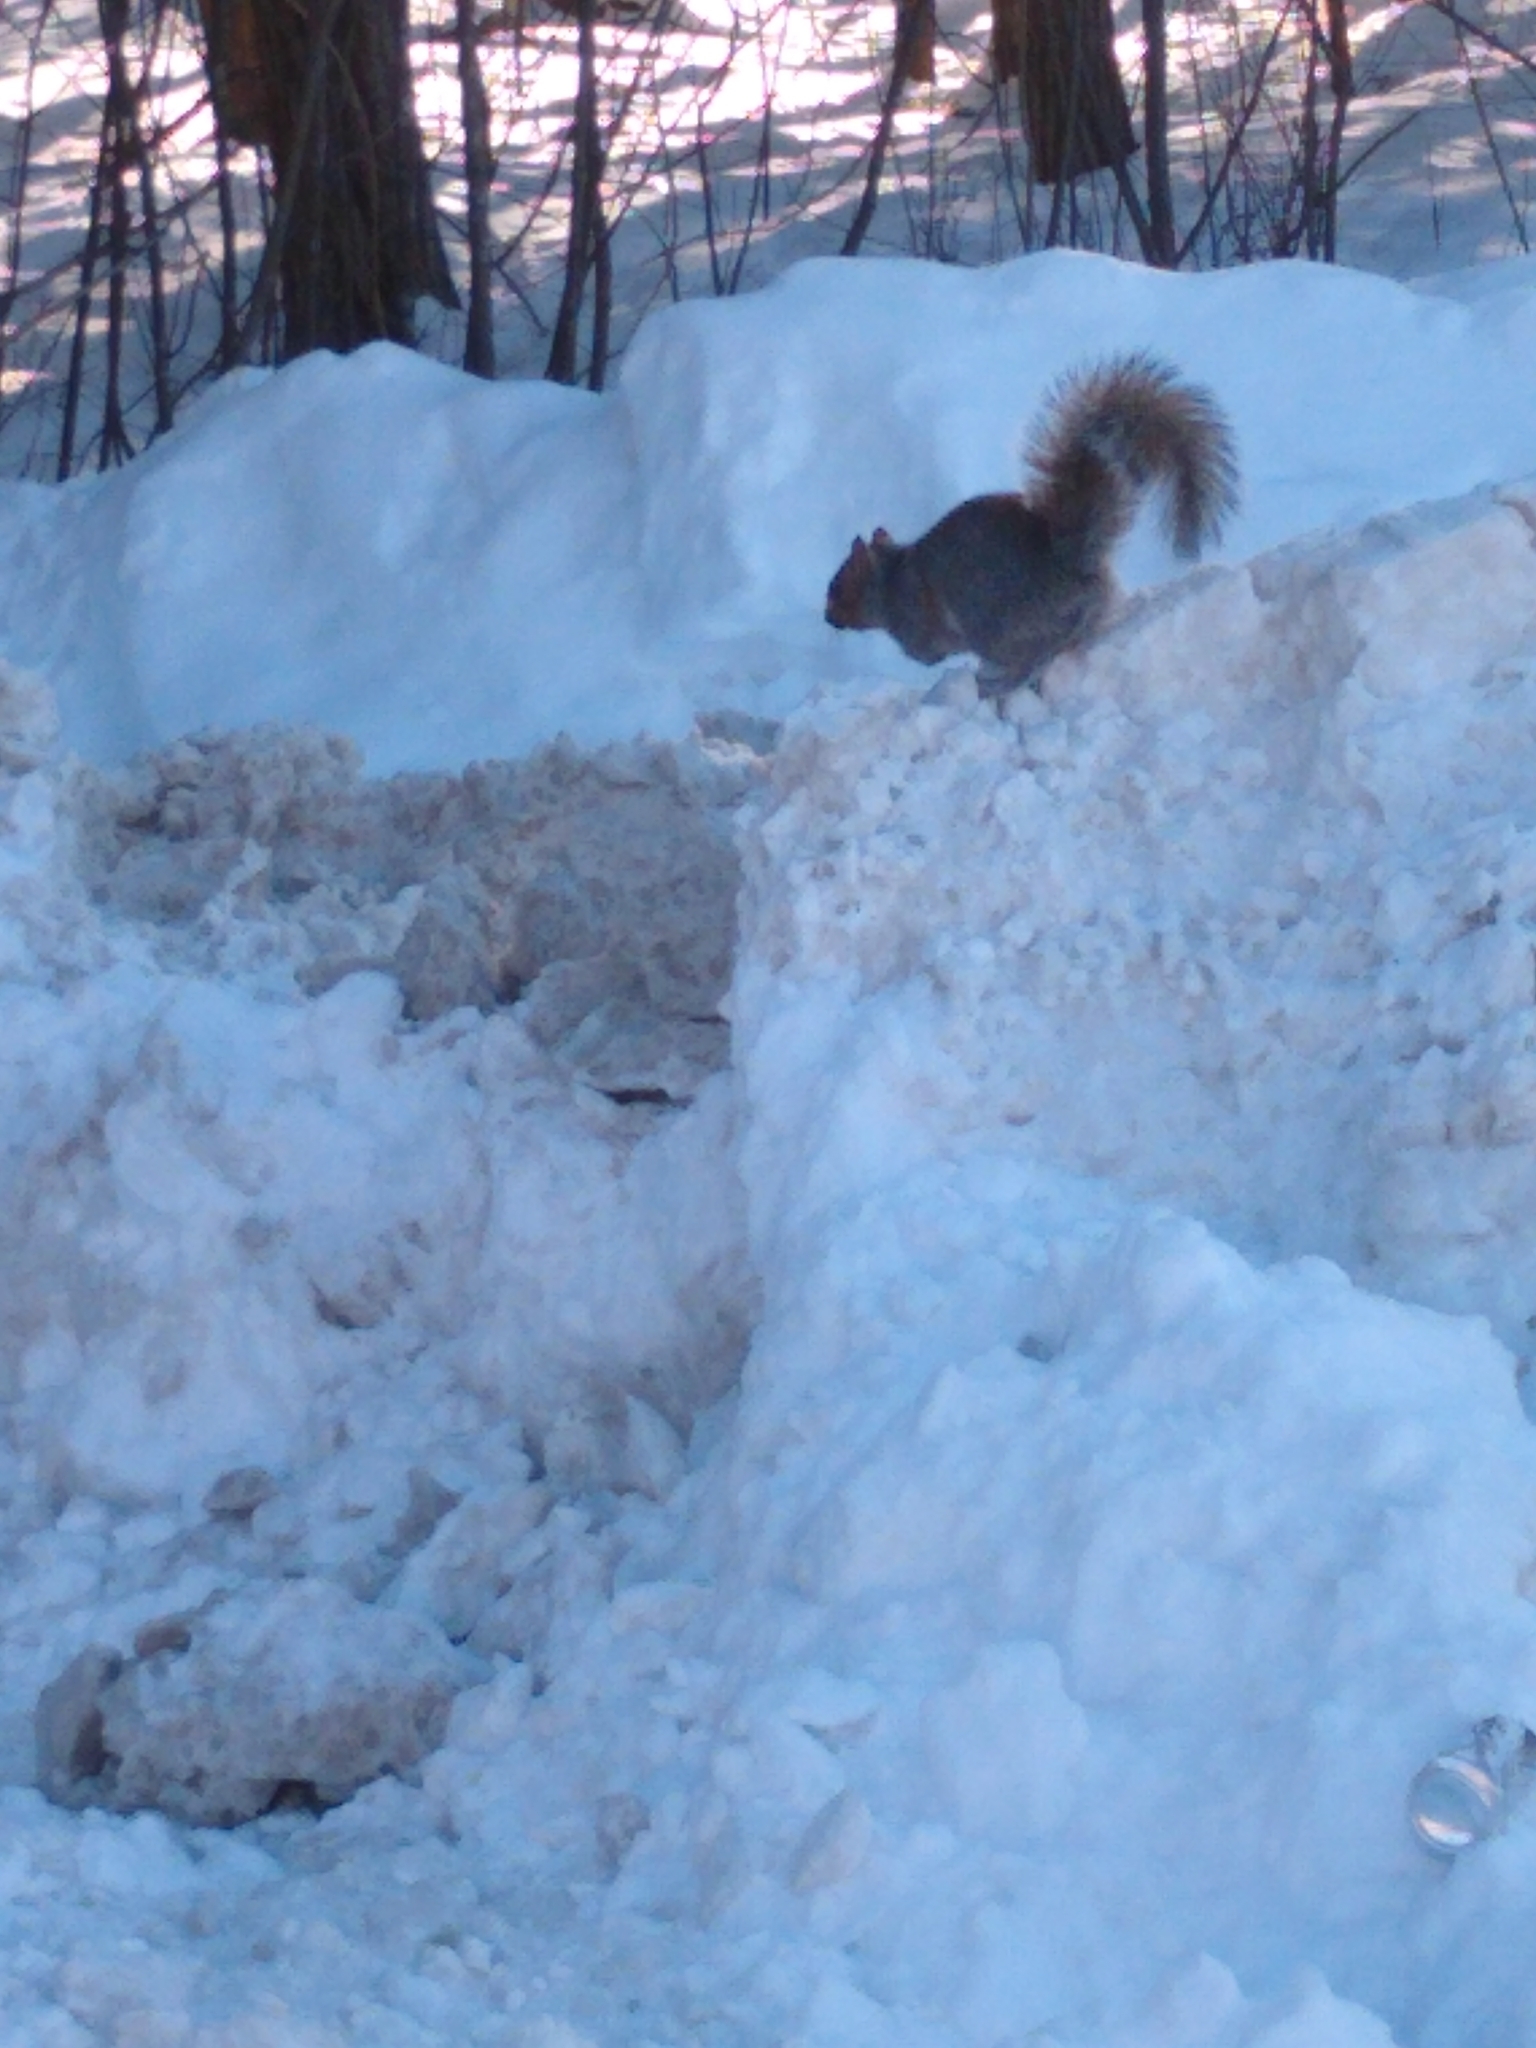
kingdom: Animalia
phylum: Chordata
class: Mammalia
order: Rodentia
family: Sciuridae
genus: Sciurus
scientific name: Sciurus carolinensis
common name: Eastern gray squirrel
